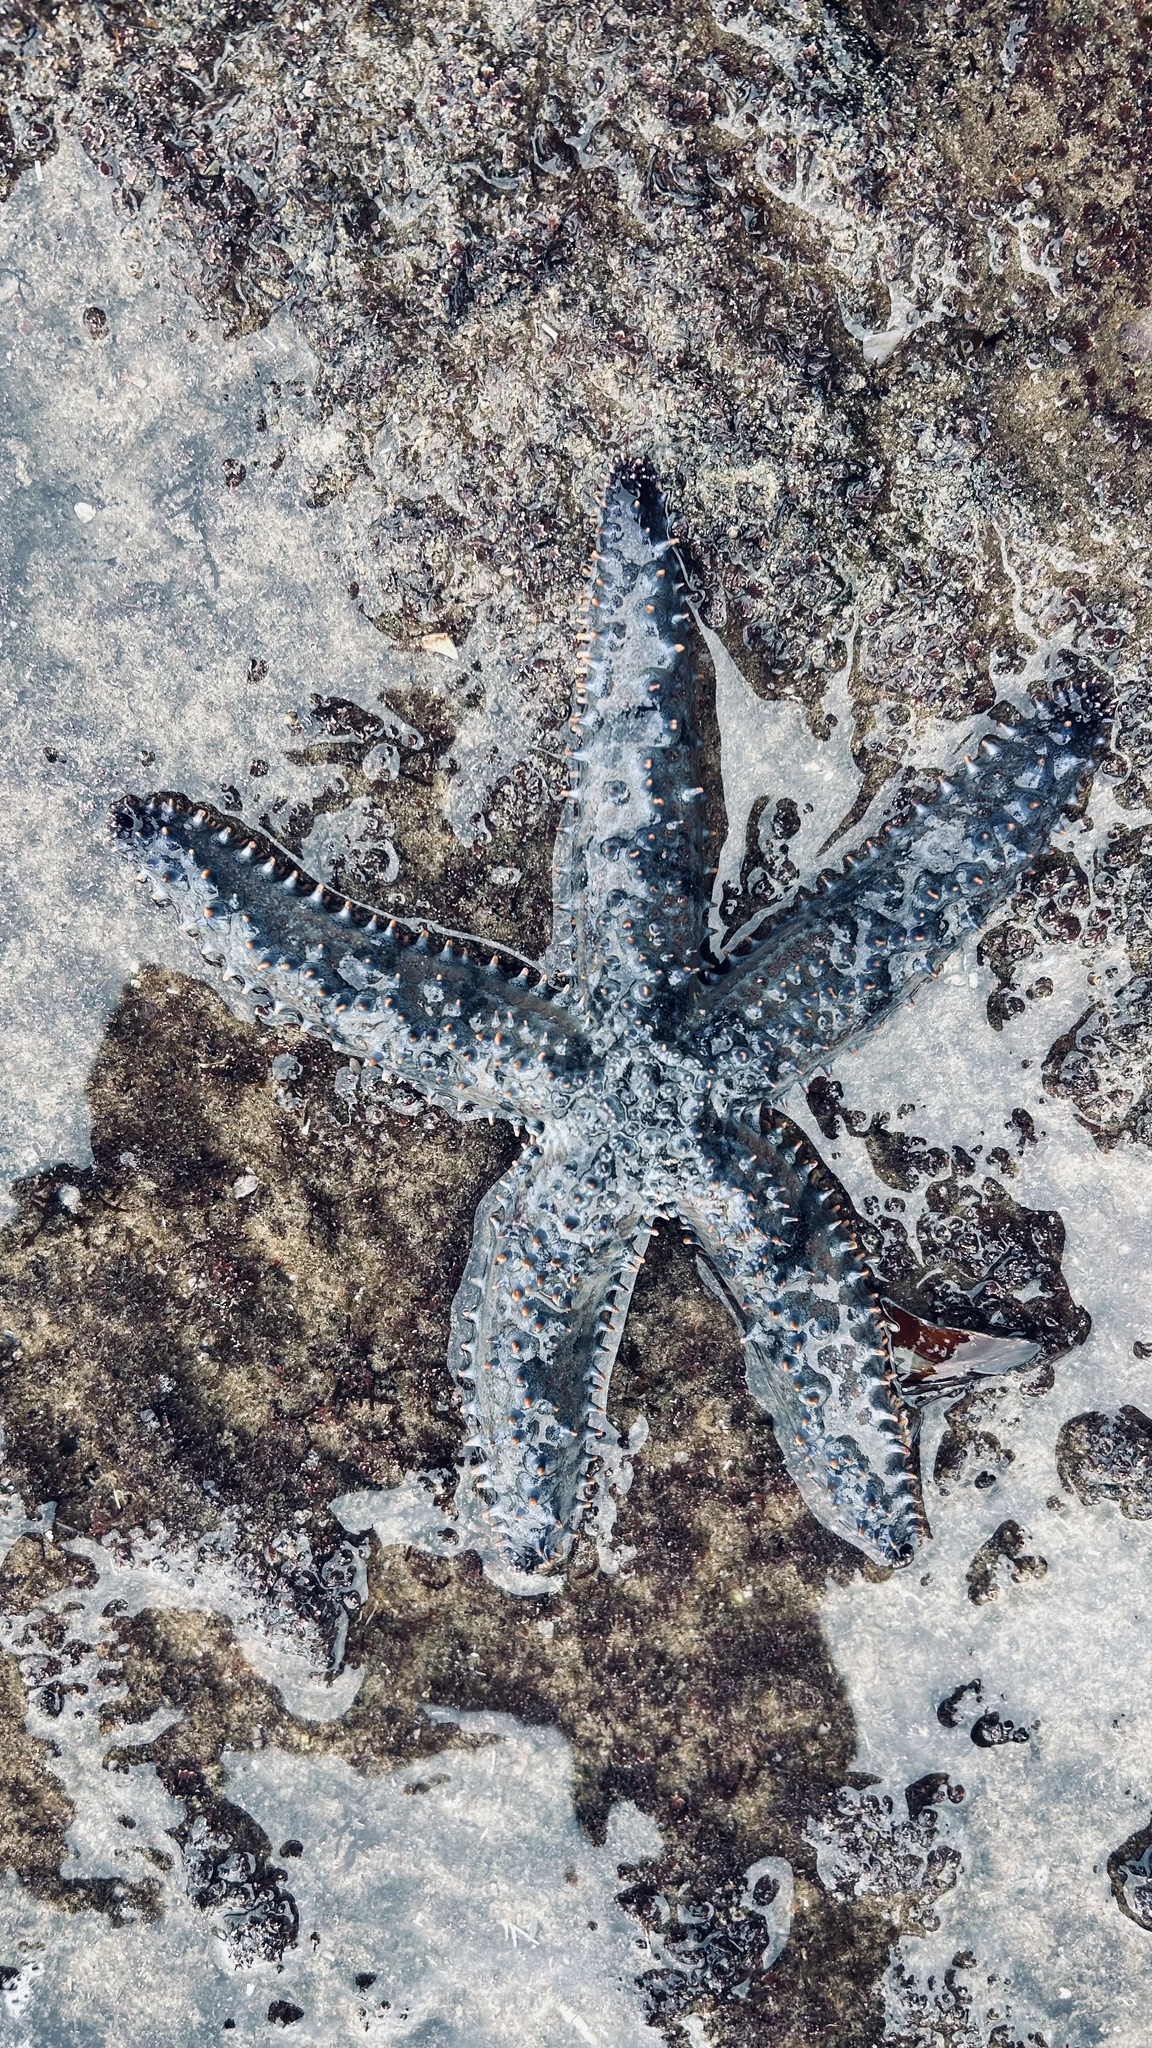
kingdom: Animalia
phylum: Echinodermata
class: Asteroidea
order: Forcipulatida
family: Asteriidae
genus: Marthasterias
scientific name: Marthasterias africana
